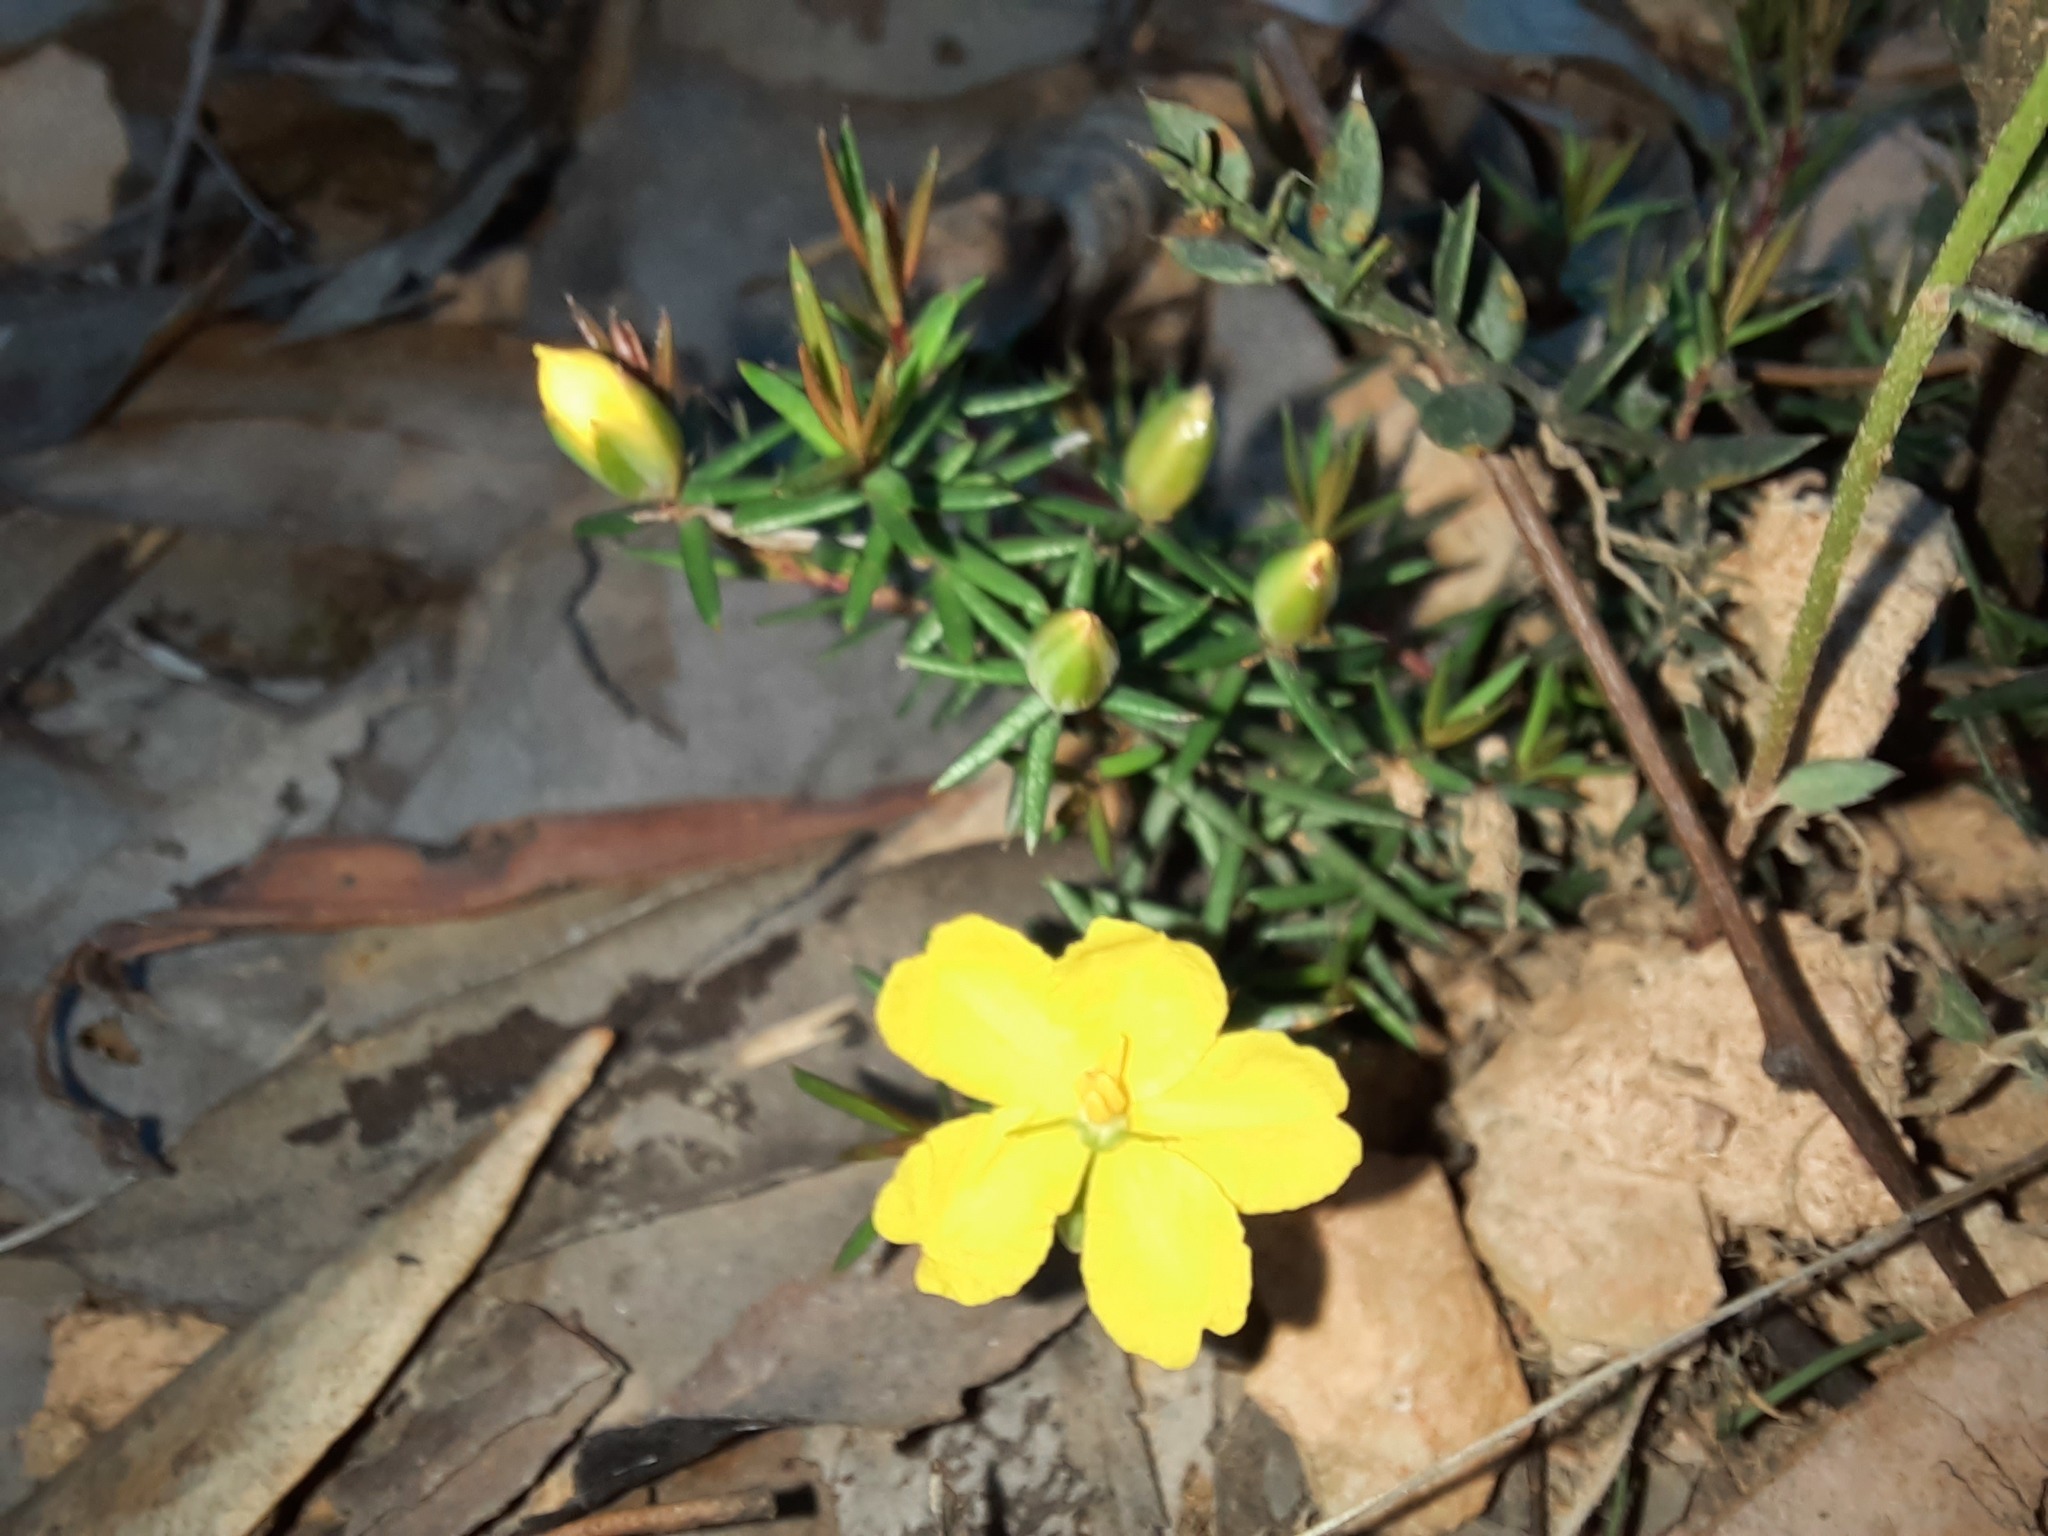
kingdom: Plantae
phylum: Tracheophyta
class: Magnoliopsida
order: Dilleniales
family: Dilleniaceae
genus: Hibbertia
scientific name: Hibbertia exutiacies
